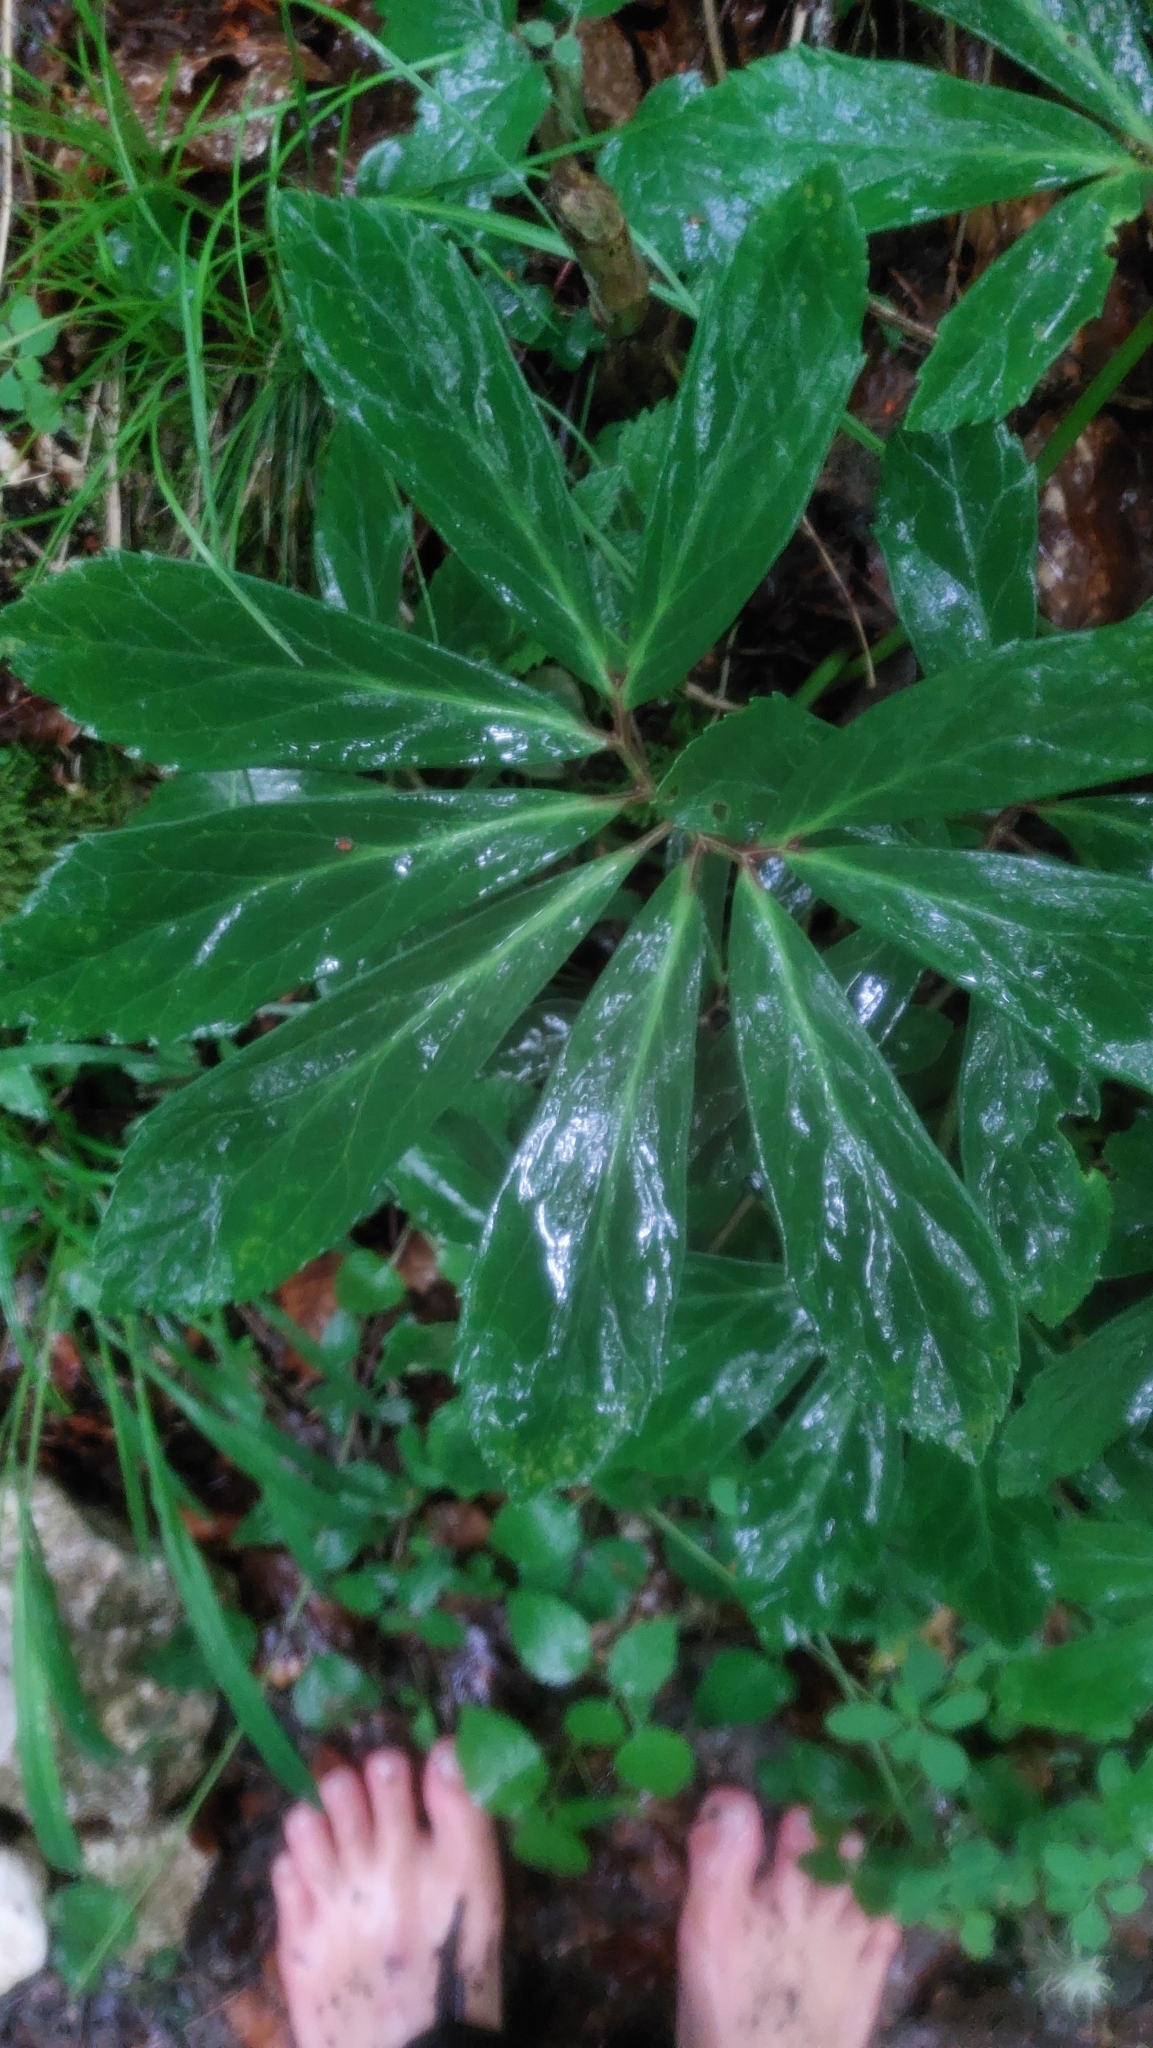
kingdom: Plantae
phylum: Tracheophyta
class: Magnoliopsida
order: Ranunculales
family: Ranunculaceae
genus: Helleborus
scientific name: Helleborus niger
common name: Black hellebore
